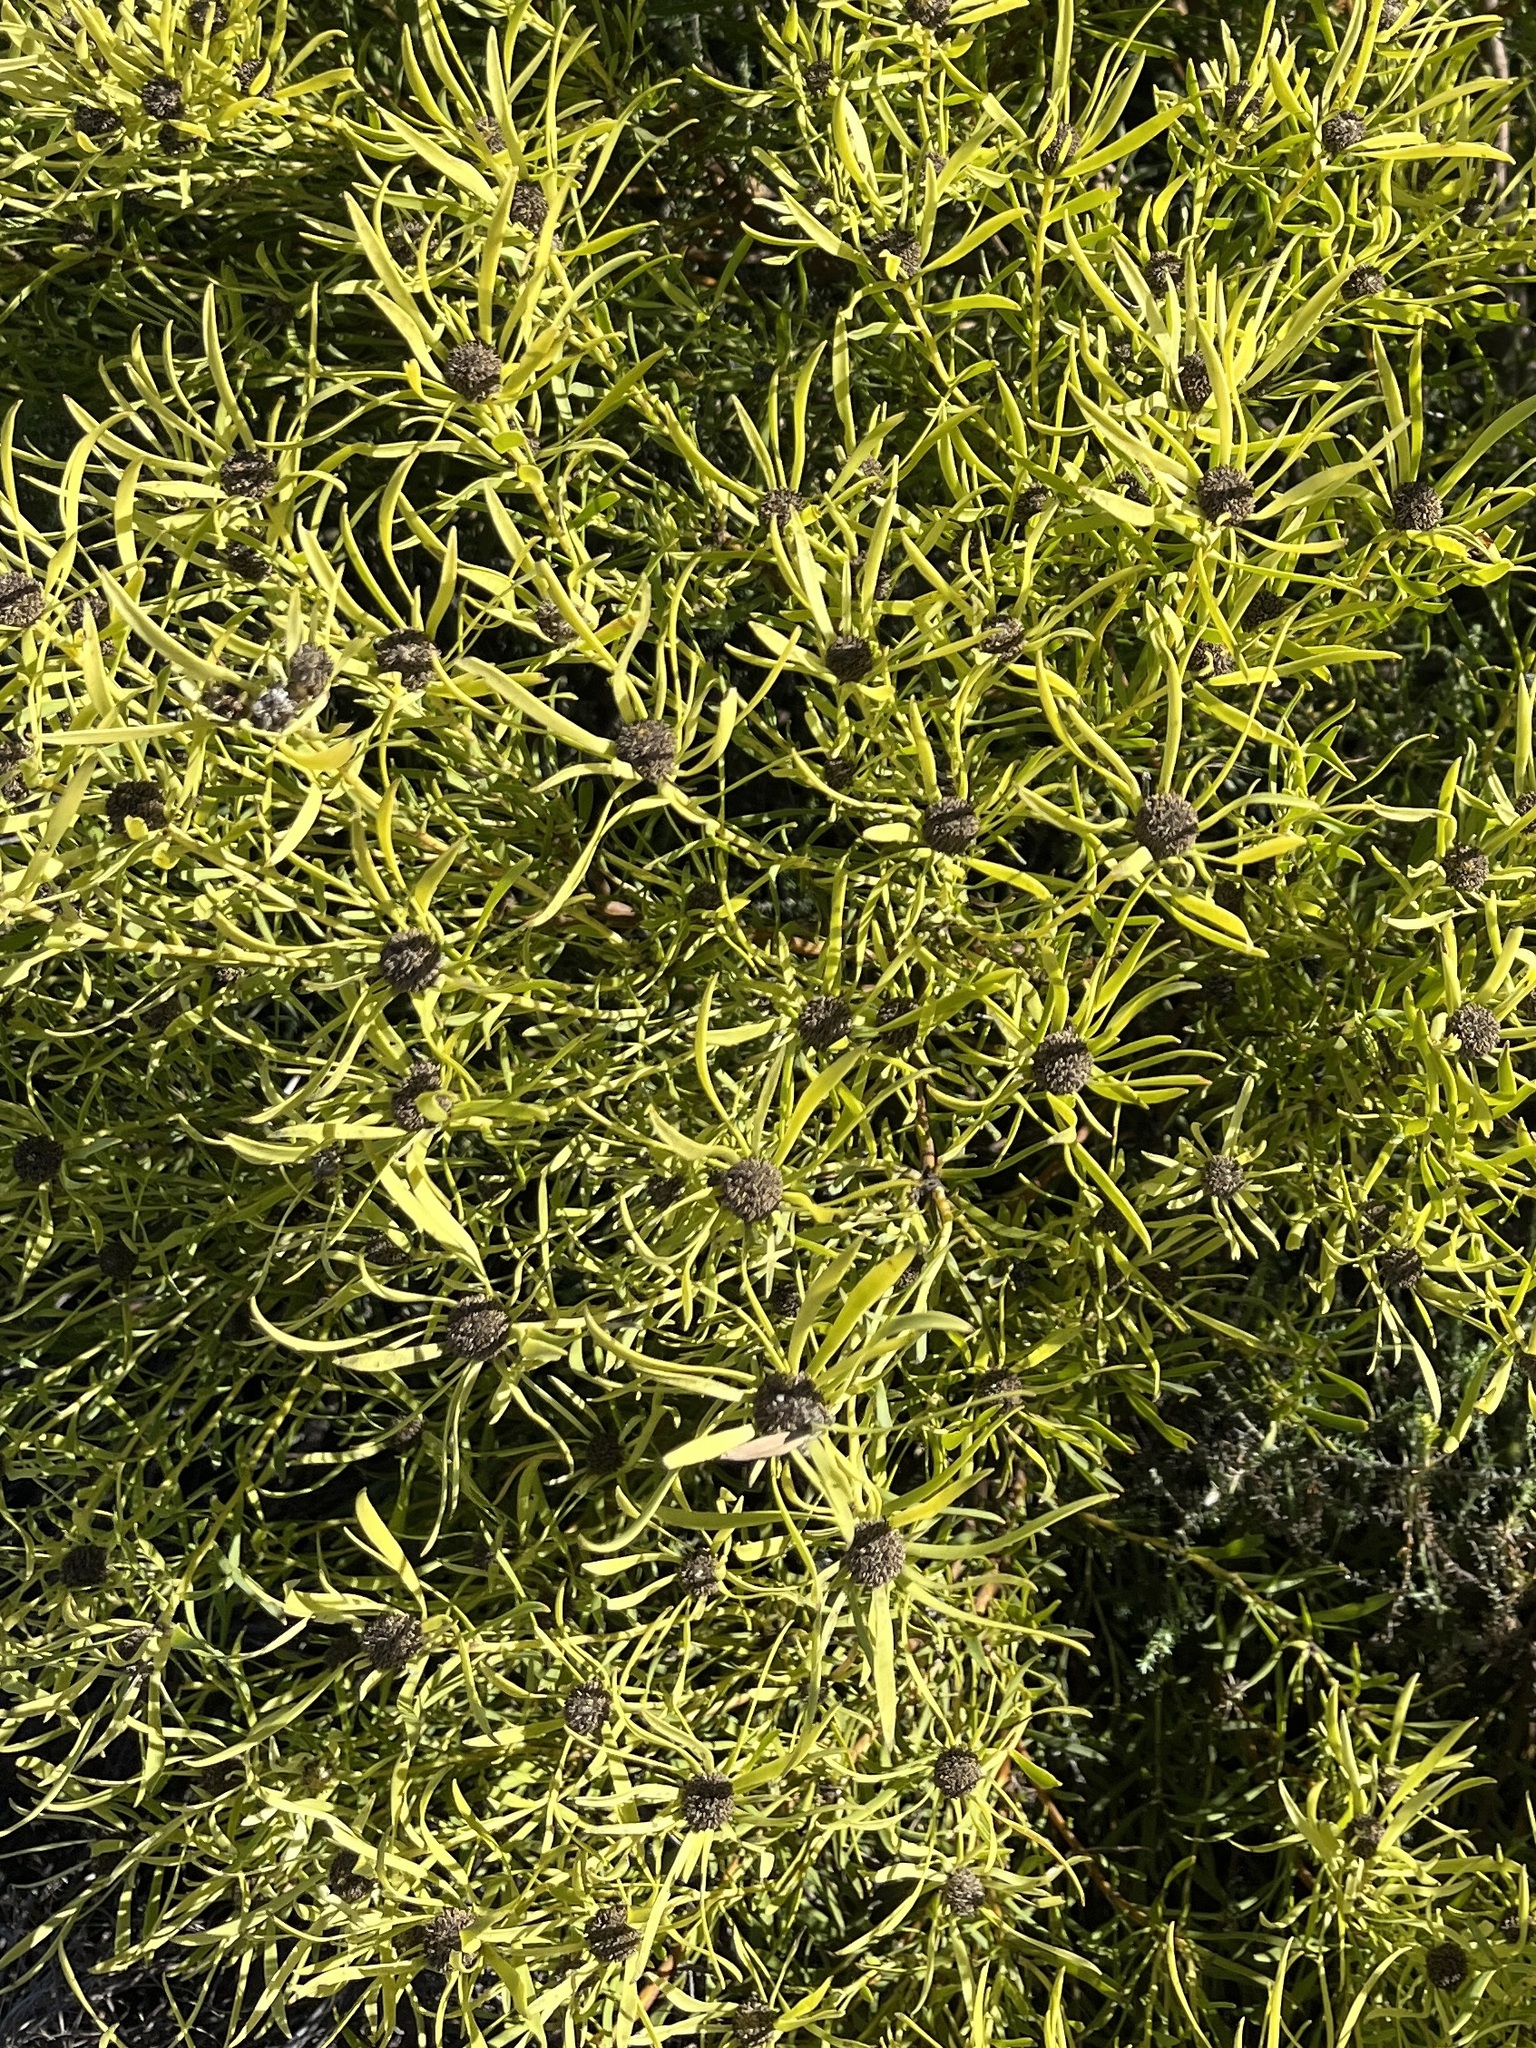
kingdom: Plantae
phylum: Tracheophyta
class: Magnoliopsida
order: Proteales
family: Proteaceae
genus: Leucadendron
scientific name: Leucadendron salignum
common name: Common sunshine conebush
